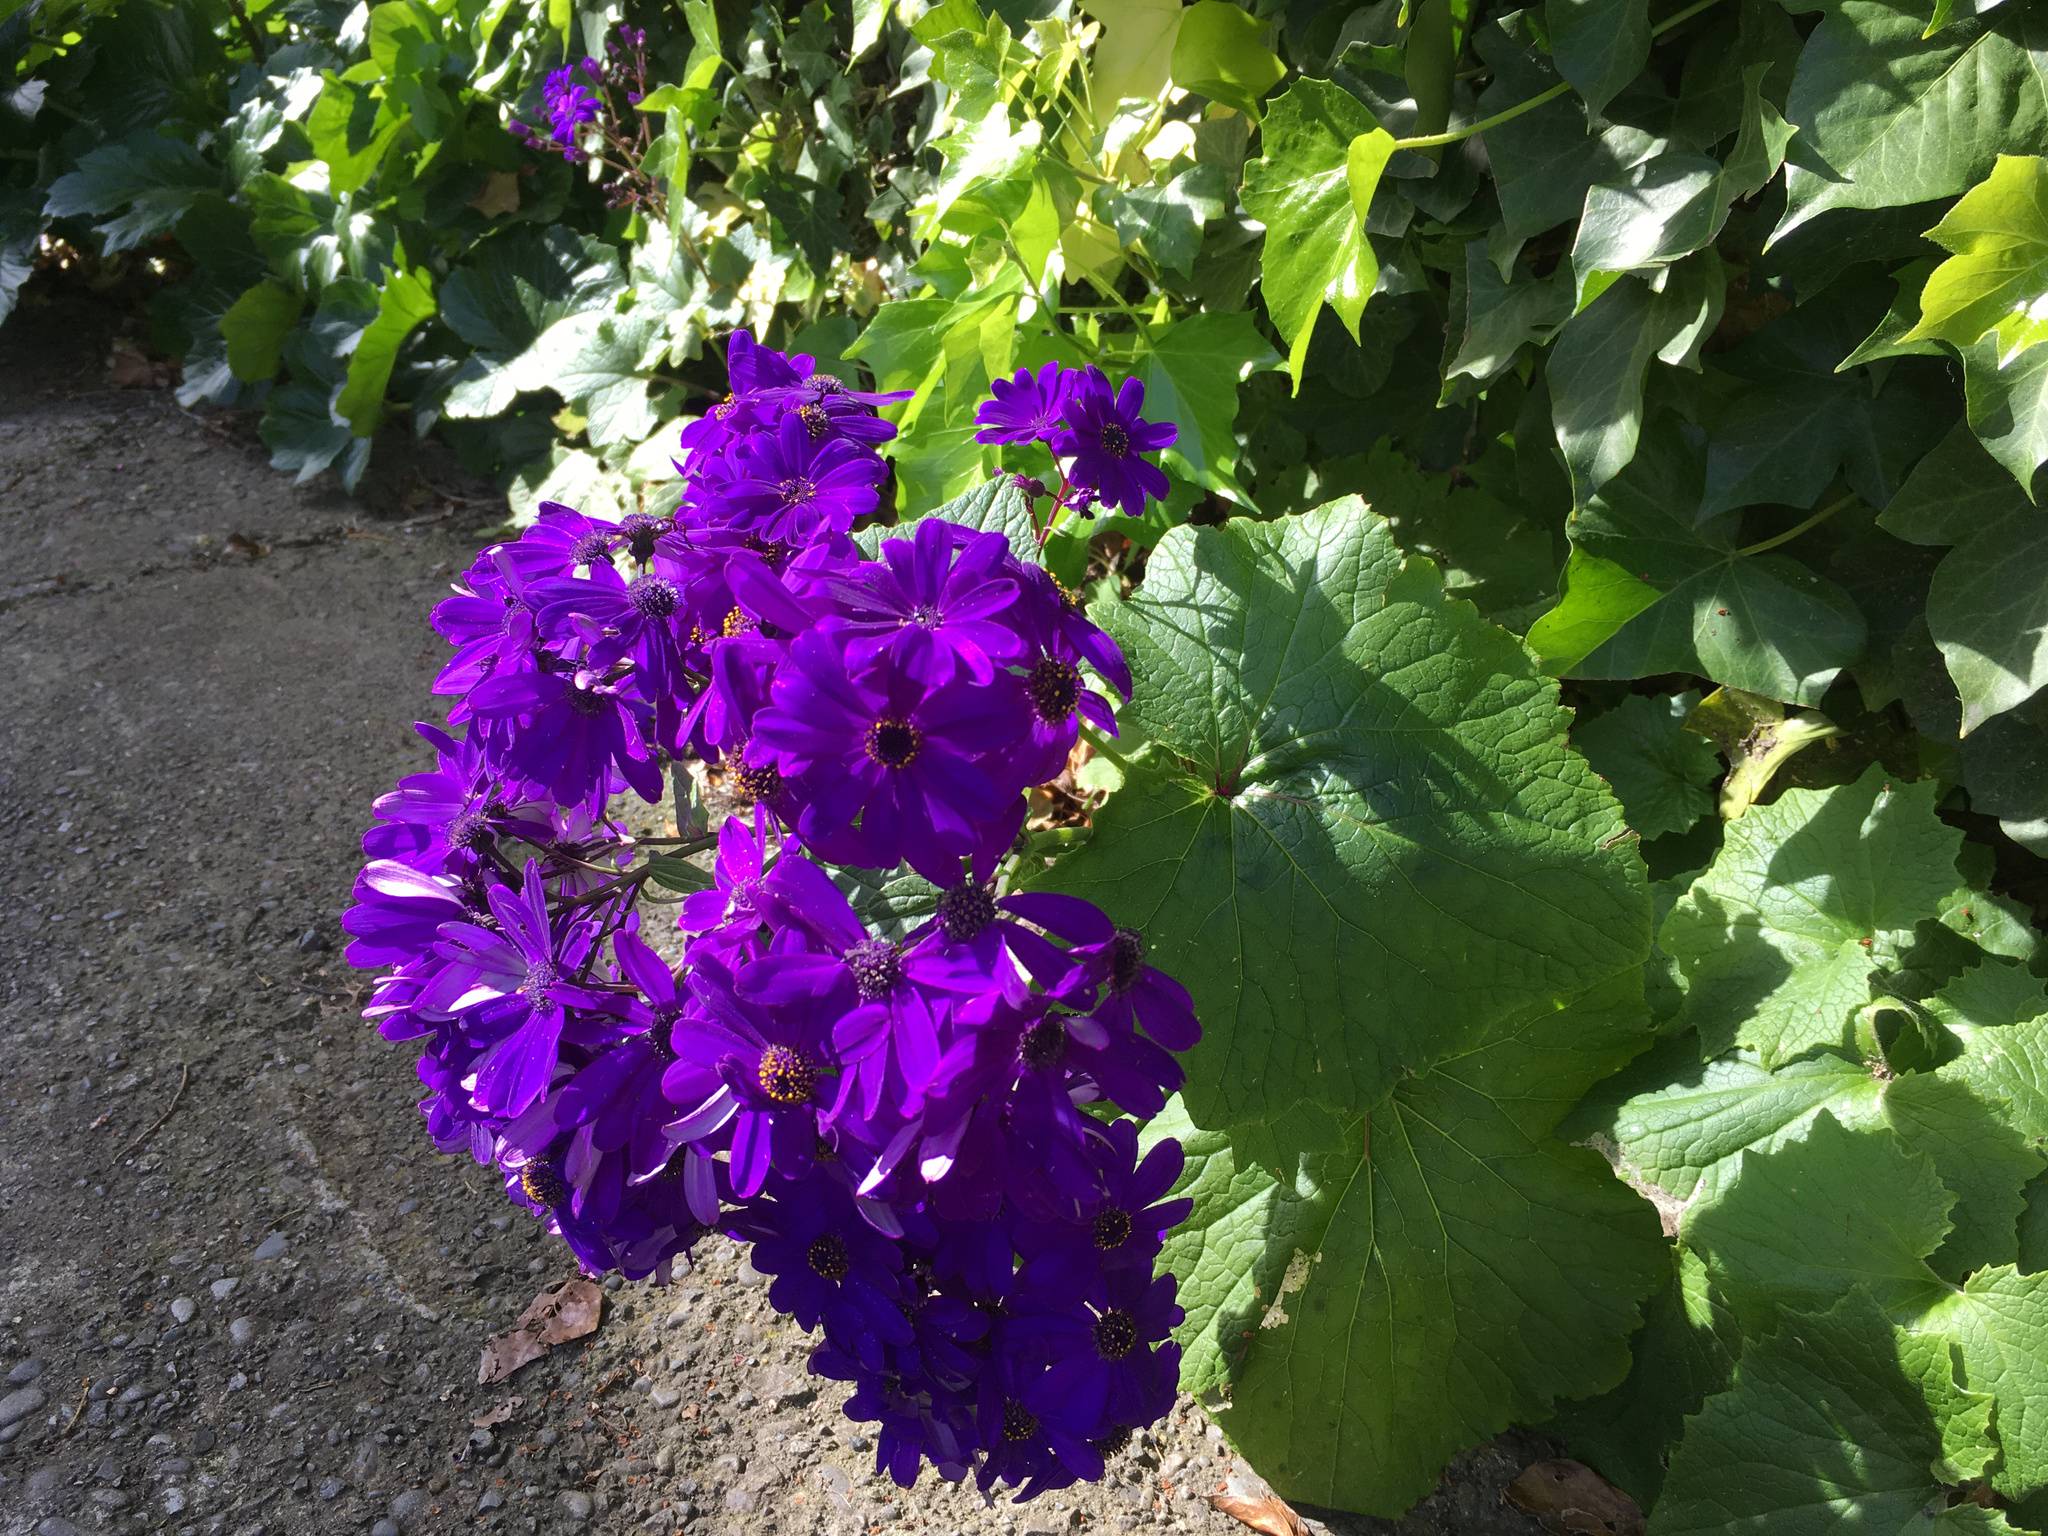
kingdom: Plantae
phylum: Tracheophyta
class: Magnoliopsida
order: Asterales
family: Asteraceae
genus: Pericallis
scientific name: Pericallis hybrida
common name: Cineraria
